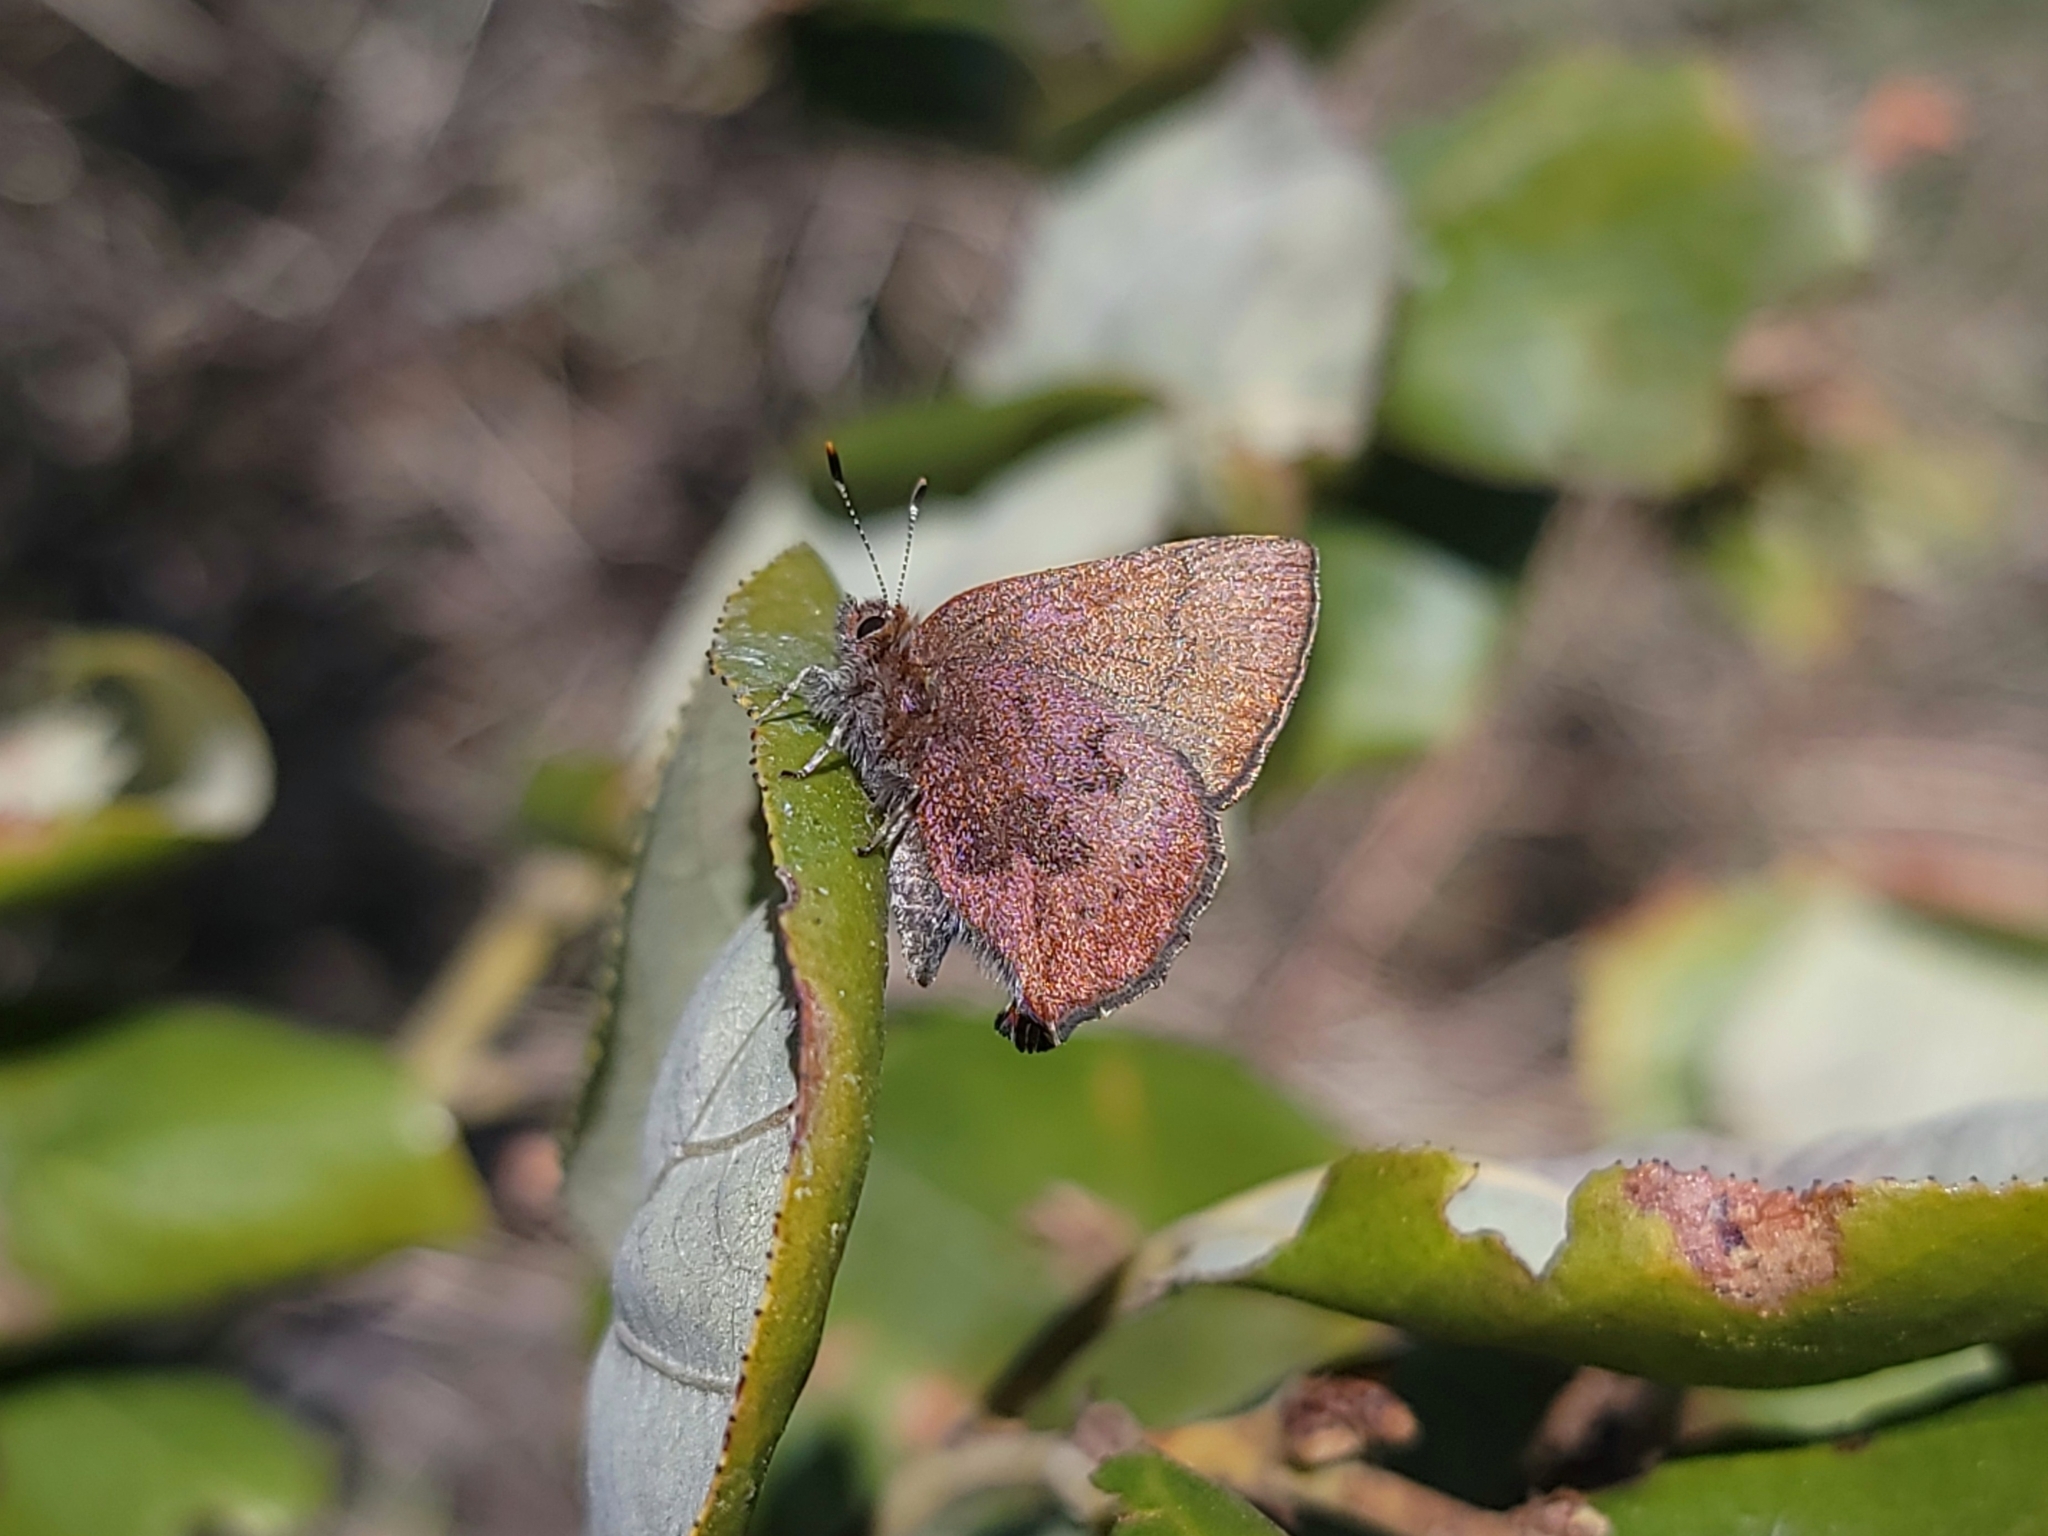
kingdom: Animalia
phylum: Arthropoda
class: Insecta
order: Lepidoptera
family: Lycaenidae
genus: Incisalia
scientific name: Incisalia irioides
